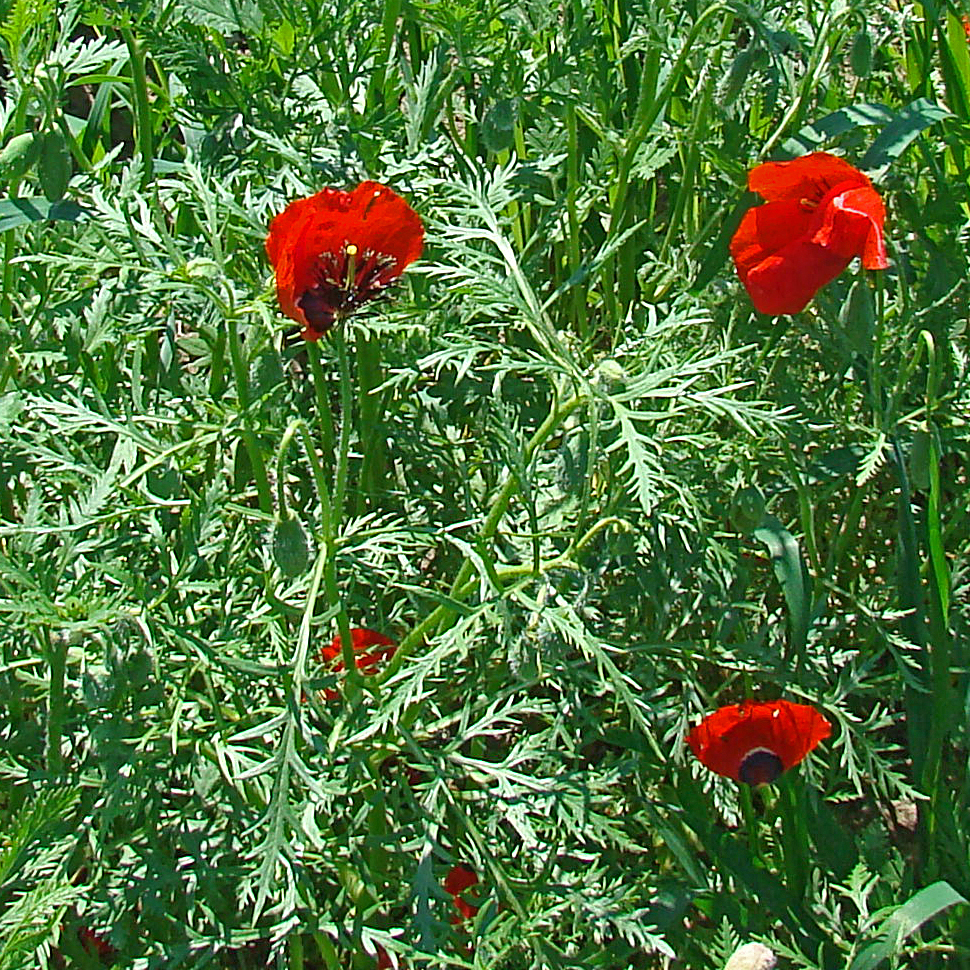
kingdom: Plantae
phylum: Tracheophyta
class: Magnoliopsida
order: Ranunculales
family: Papaveraceae
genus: Roemeria
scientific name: Roemeria refracta
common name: Spotted asian poppy
